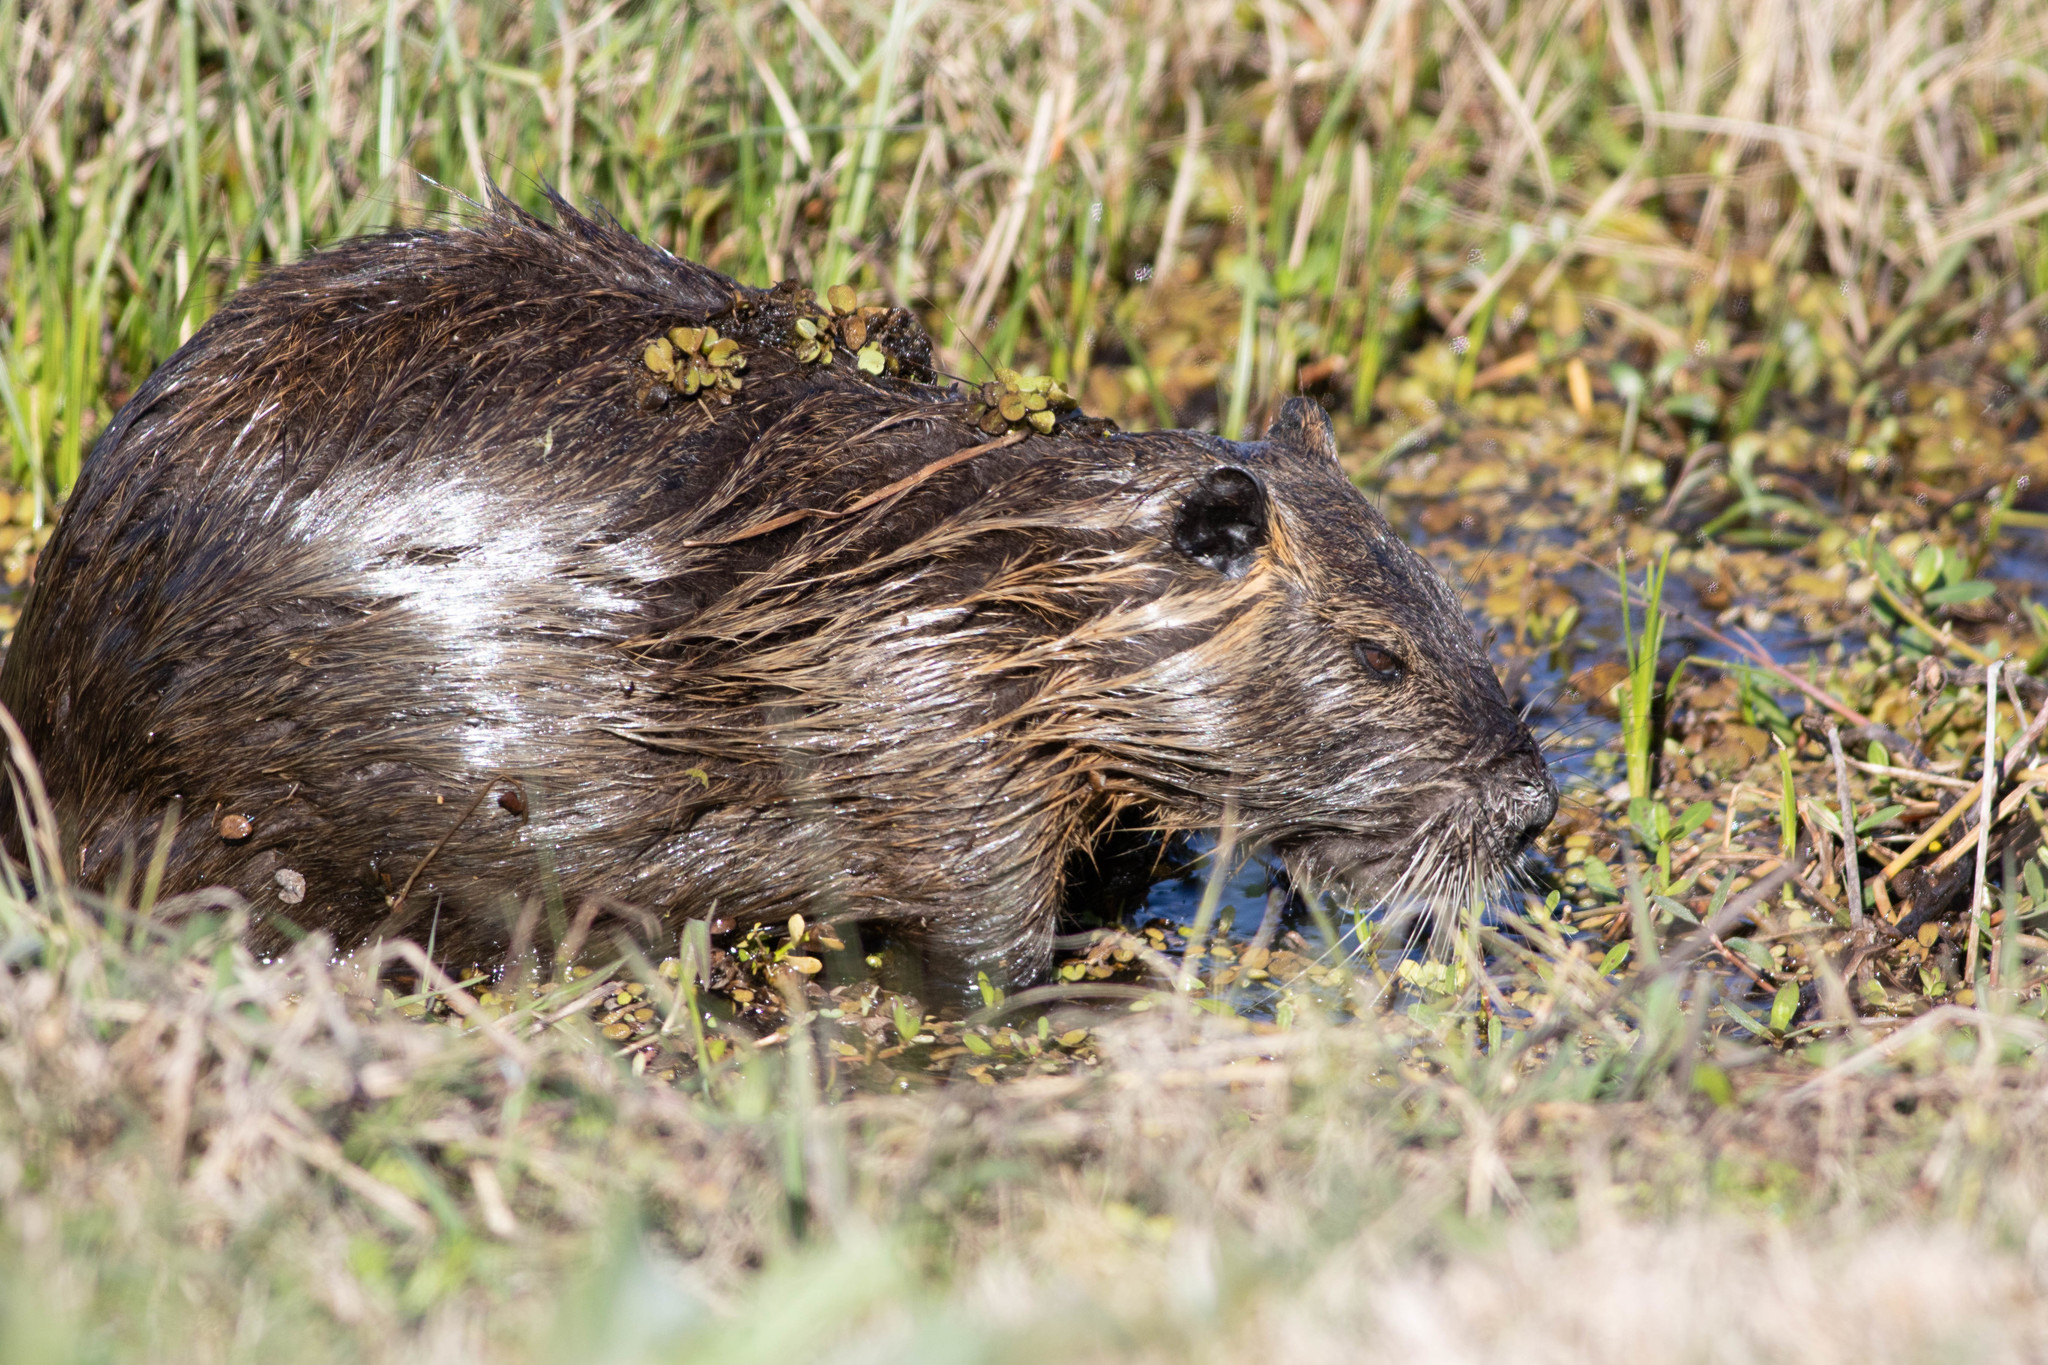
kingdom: Animalia
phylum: Chordata
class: Mammalia
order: Rodentia
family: Myocastoridae
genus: Myocastor
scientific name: Myocastor coypus
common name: Coypu
